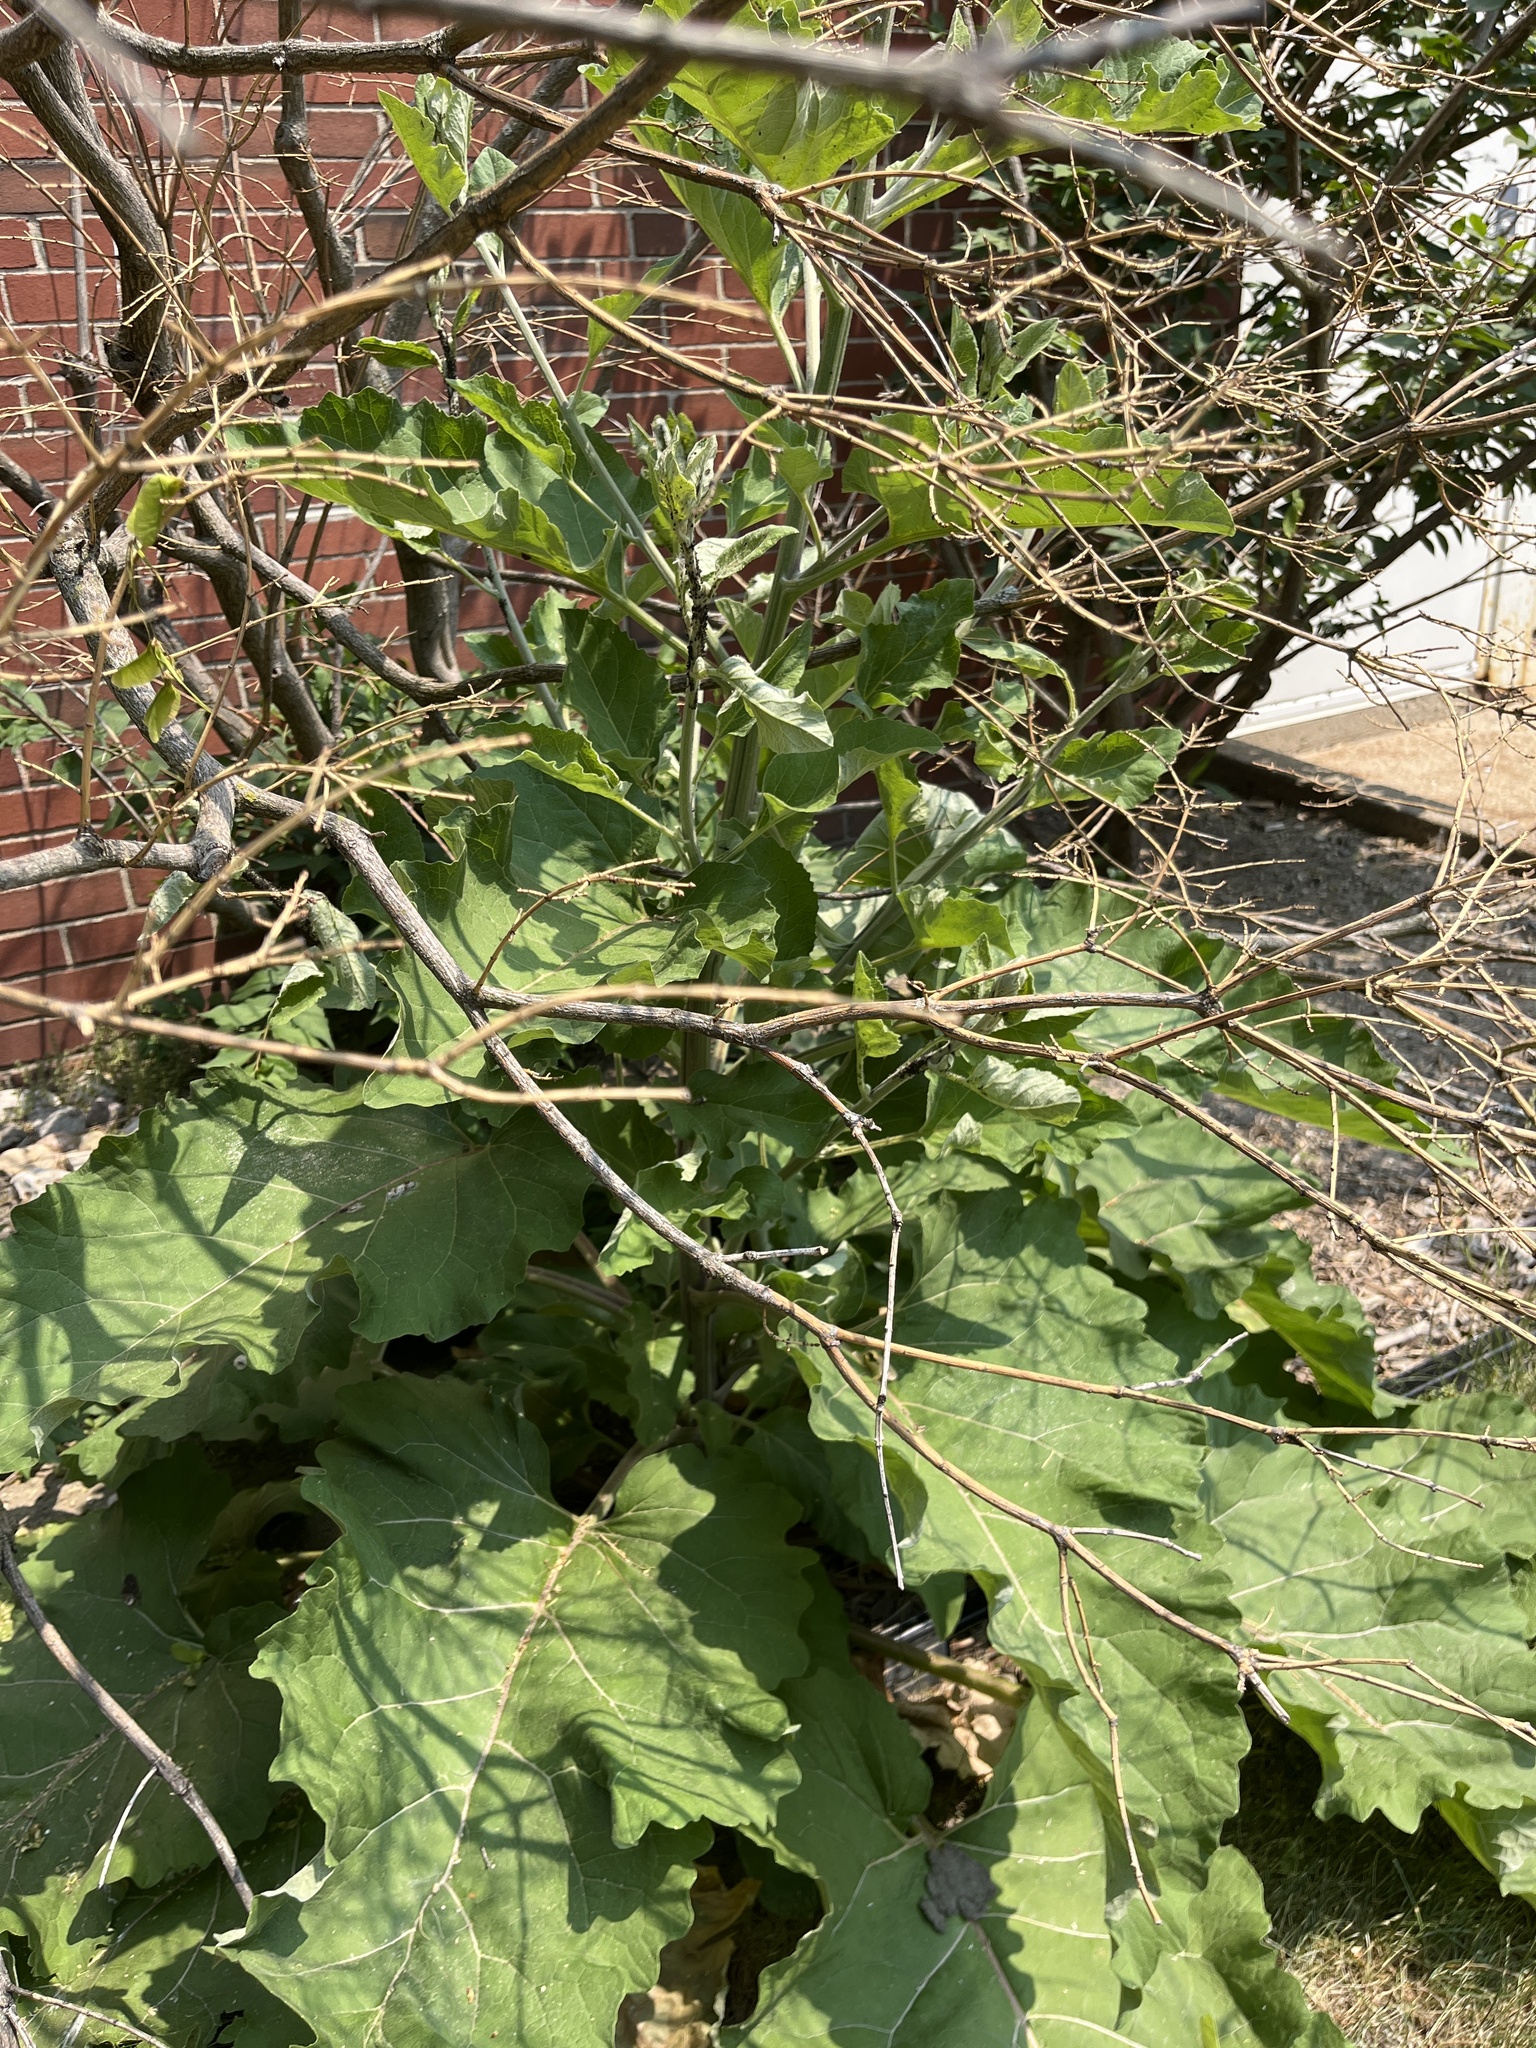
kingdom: Plantae
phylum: Tracheophyta
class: Magnoliopsida
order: Asterales
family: Asteraceae
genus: Arctium
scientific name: Arctium lappa
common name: Greater burdock
